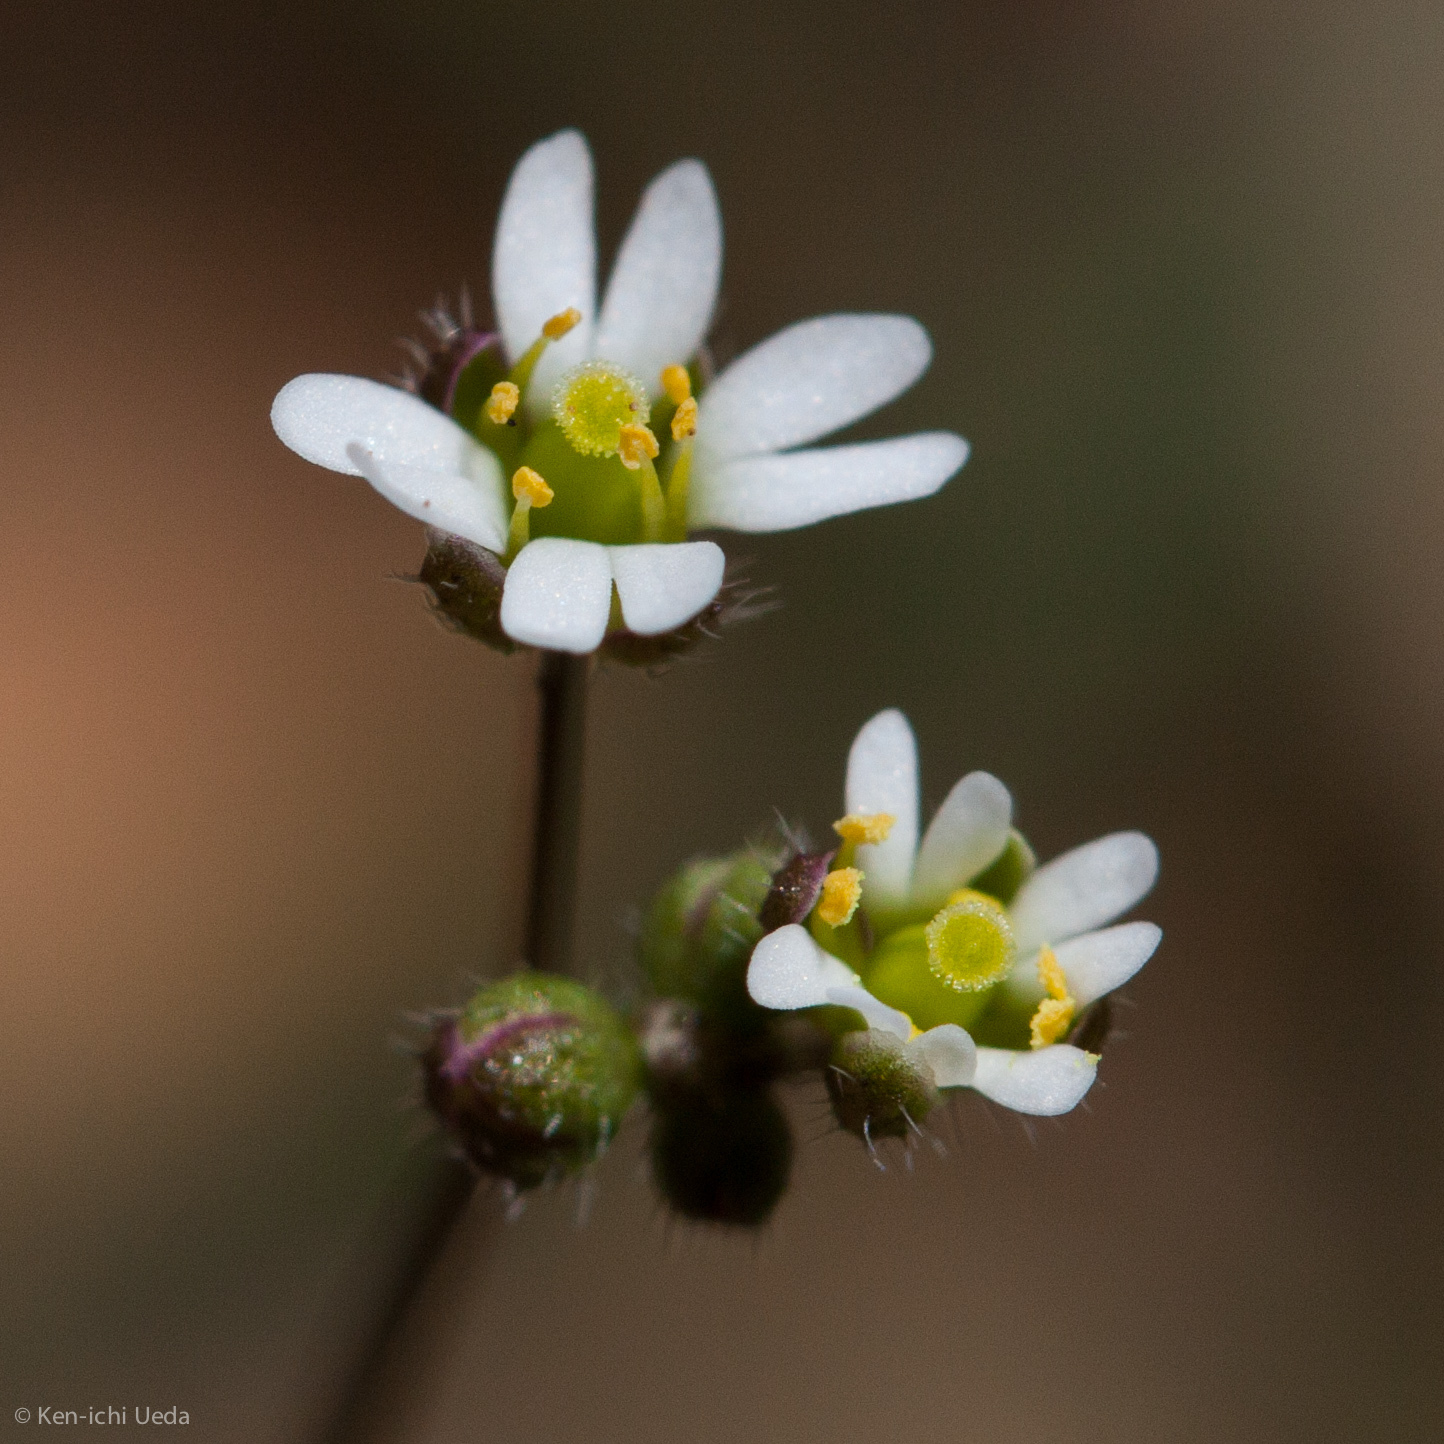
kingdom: Plantae
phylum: Tracheophyta
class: Magnoliopsida
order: Brassicales
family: Brassicaceae
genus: Draba
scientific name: Draba verna
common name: Spring draba
